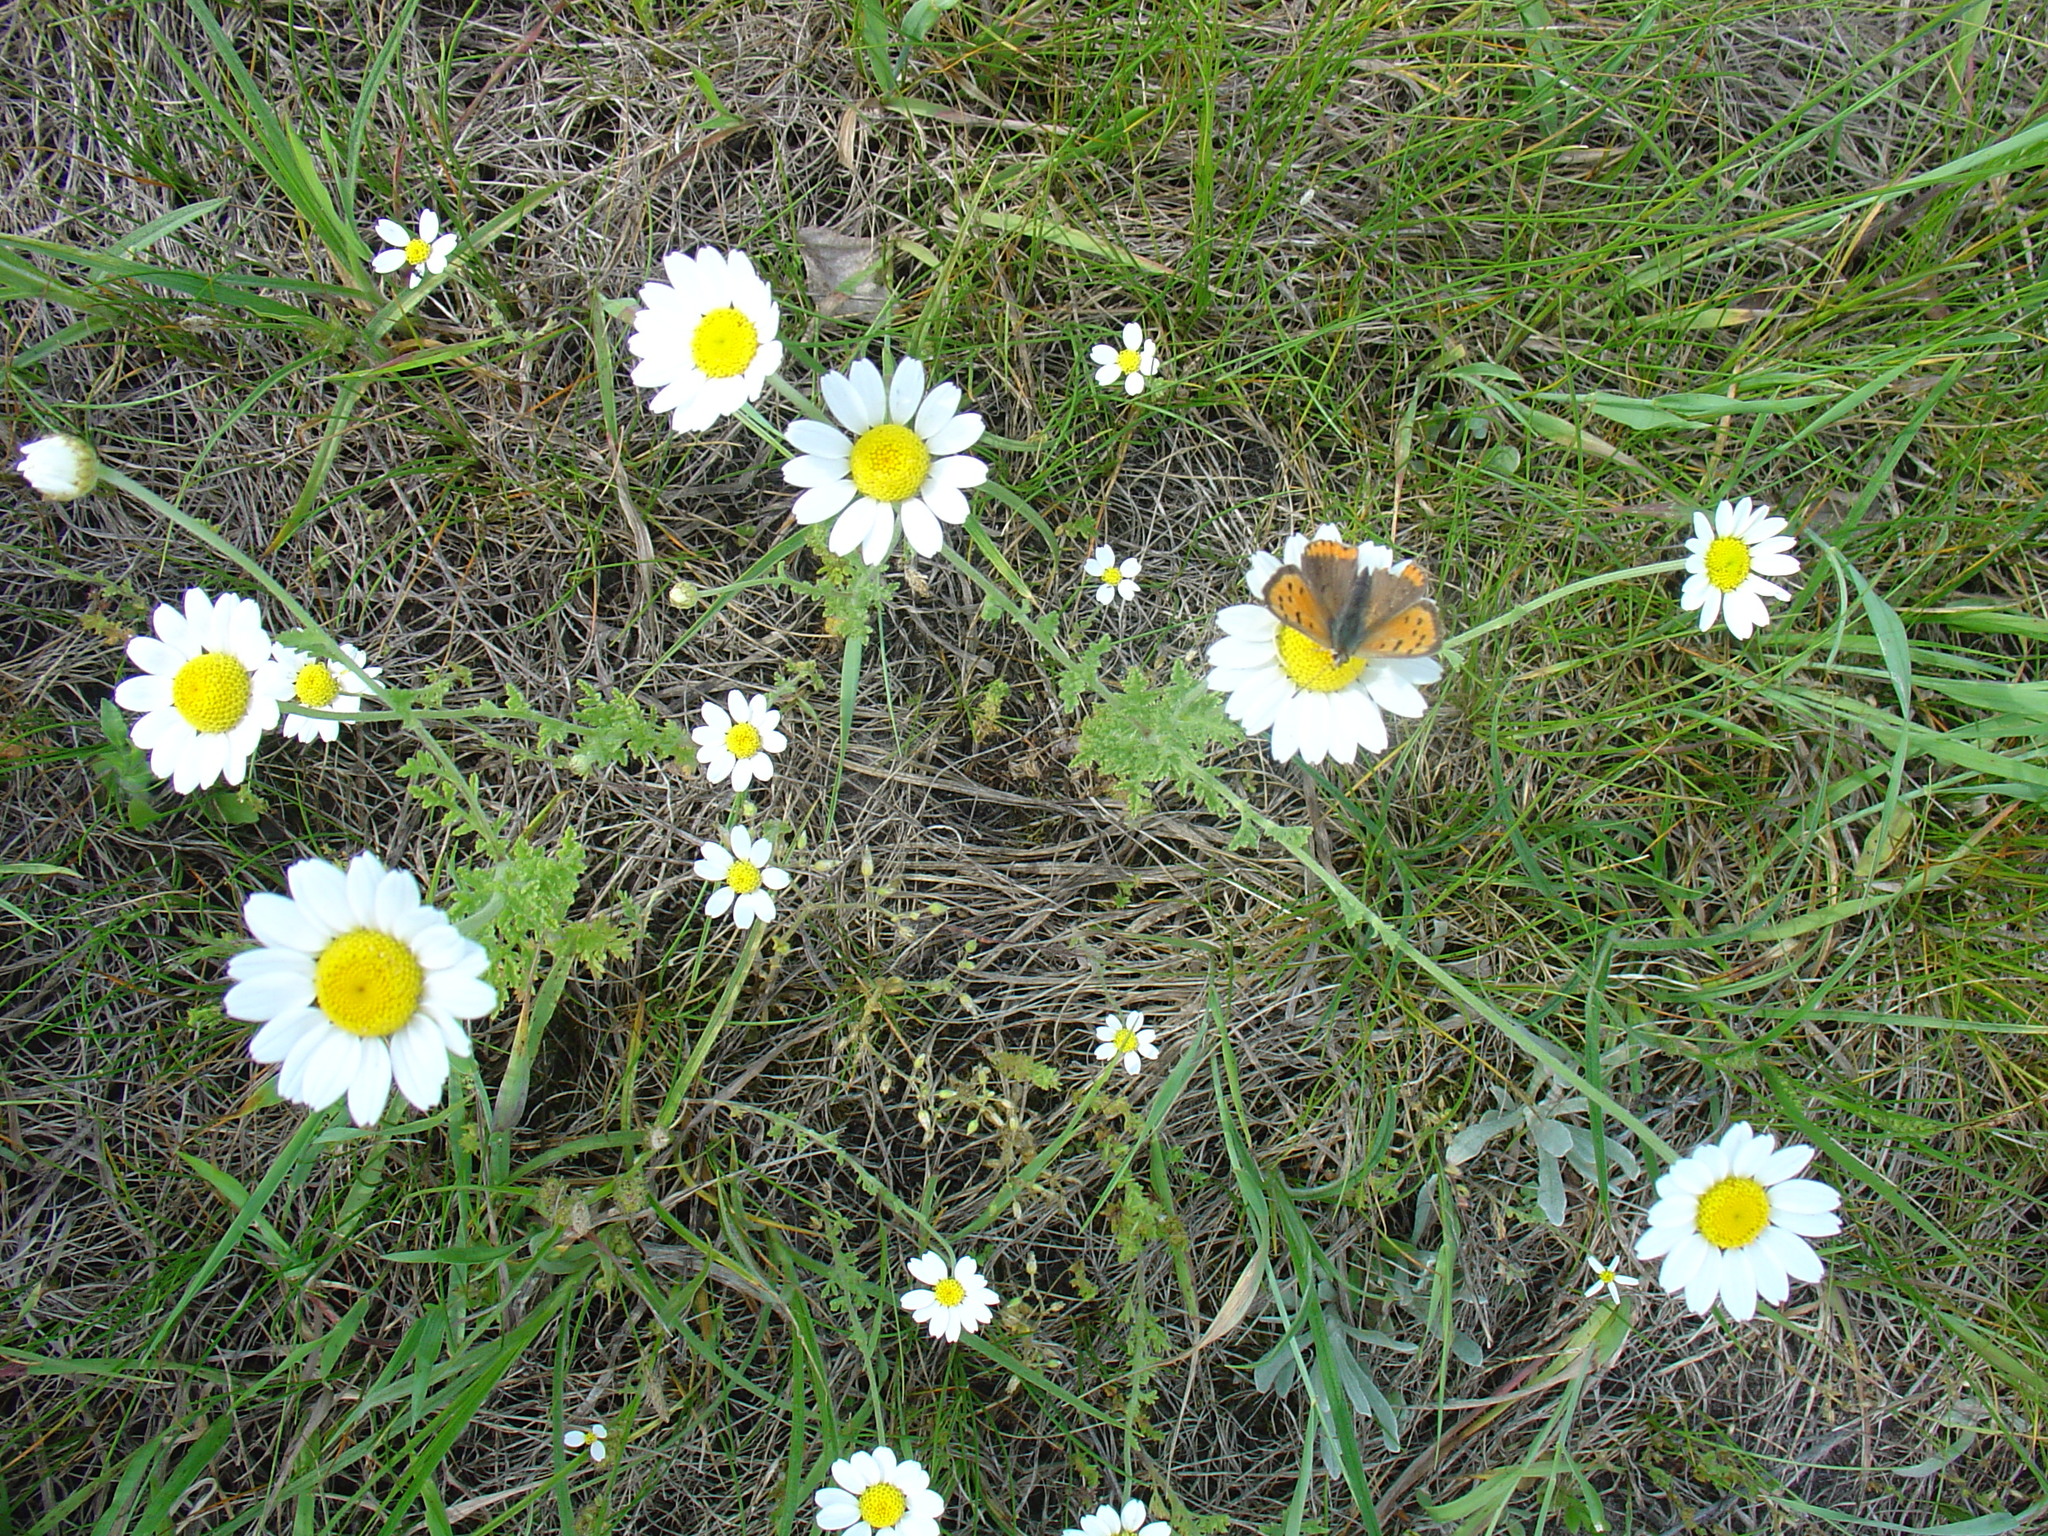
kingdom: Plantae
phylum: Tracheophyta
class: Magnoliopsida
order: Asterales
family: Asteraceae
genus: Anthemis
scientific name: Anthemis ruthenica
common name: Eastern chamomile
